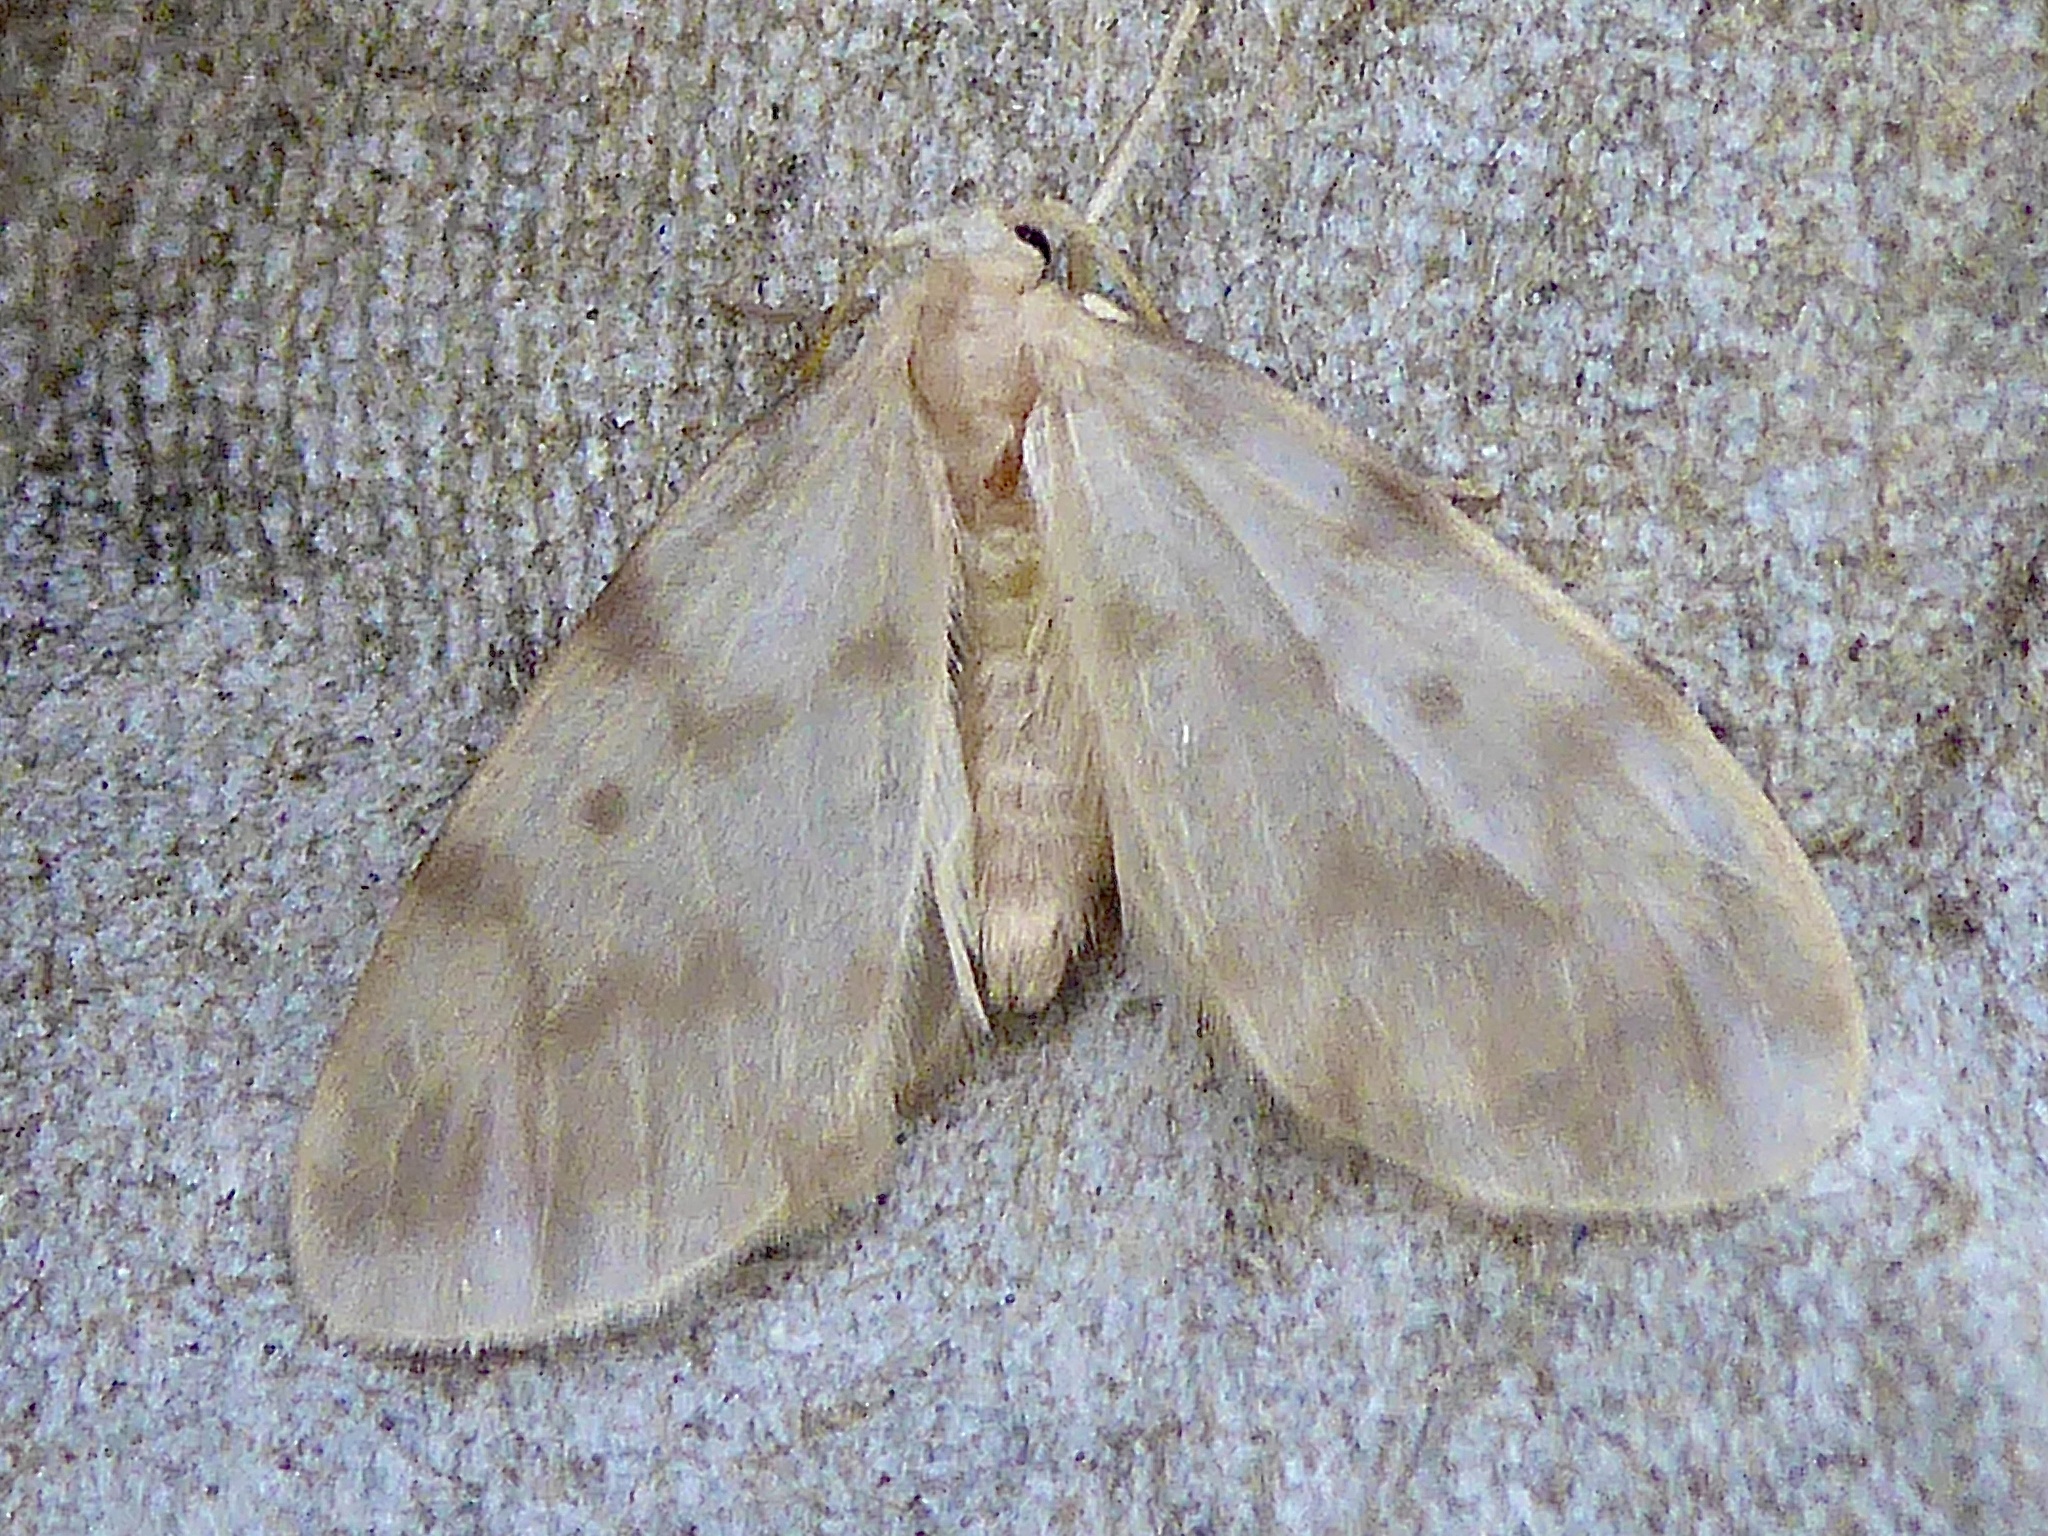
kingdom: Animalia
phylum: Arthropoda
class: Insecta
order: Lepidoptera
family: Erebidae
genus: Nudaria
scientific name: Nudaria mundana
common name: Muslin footman
